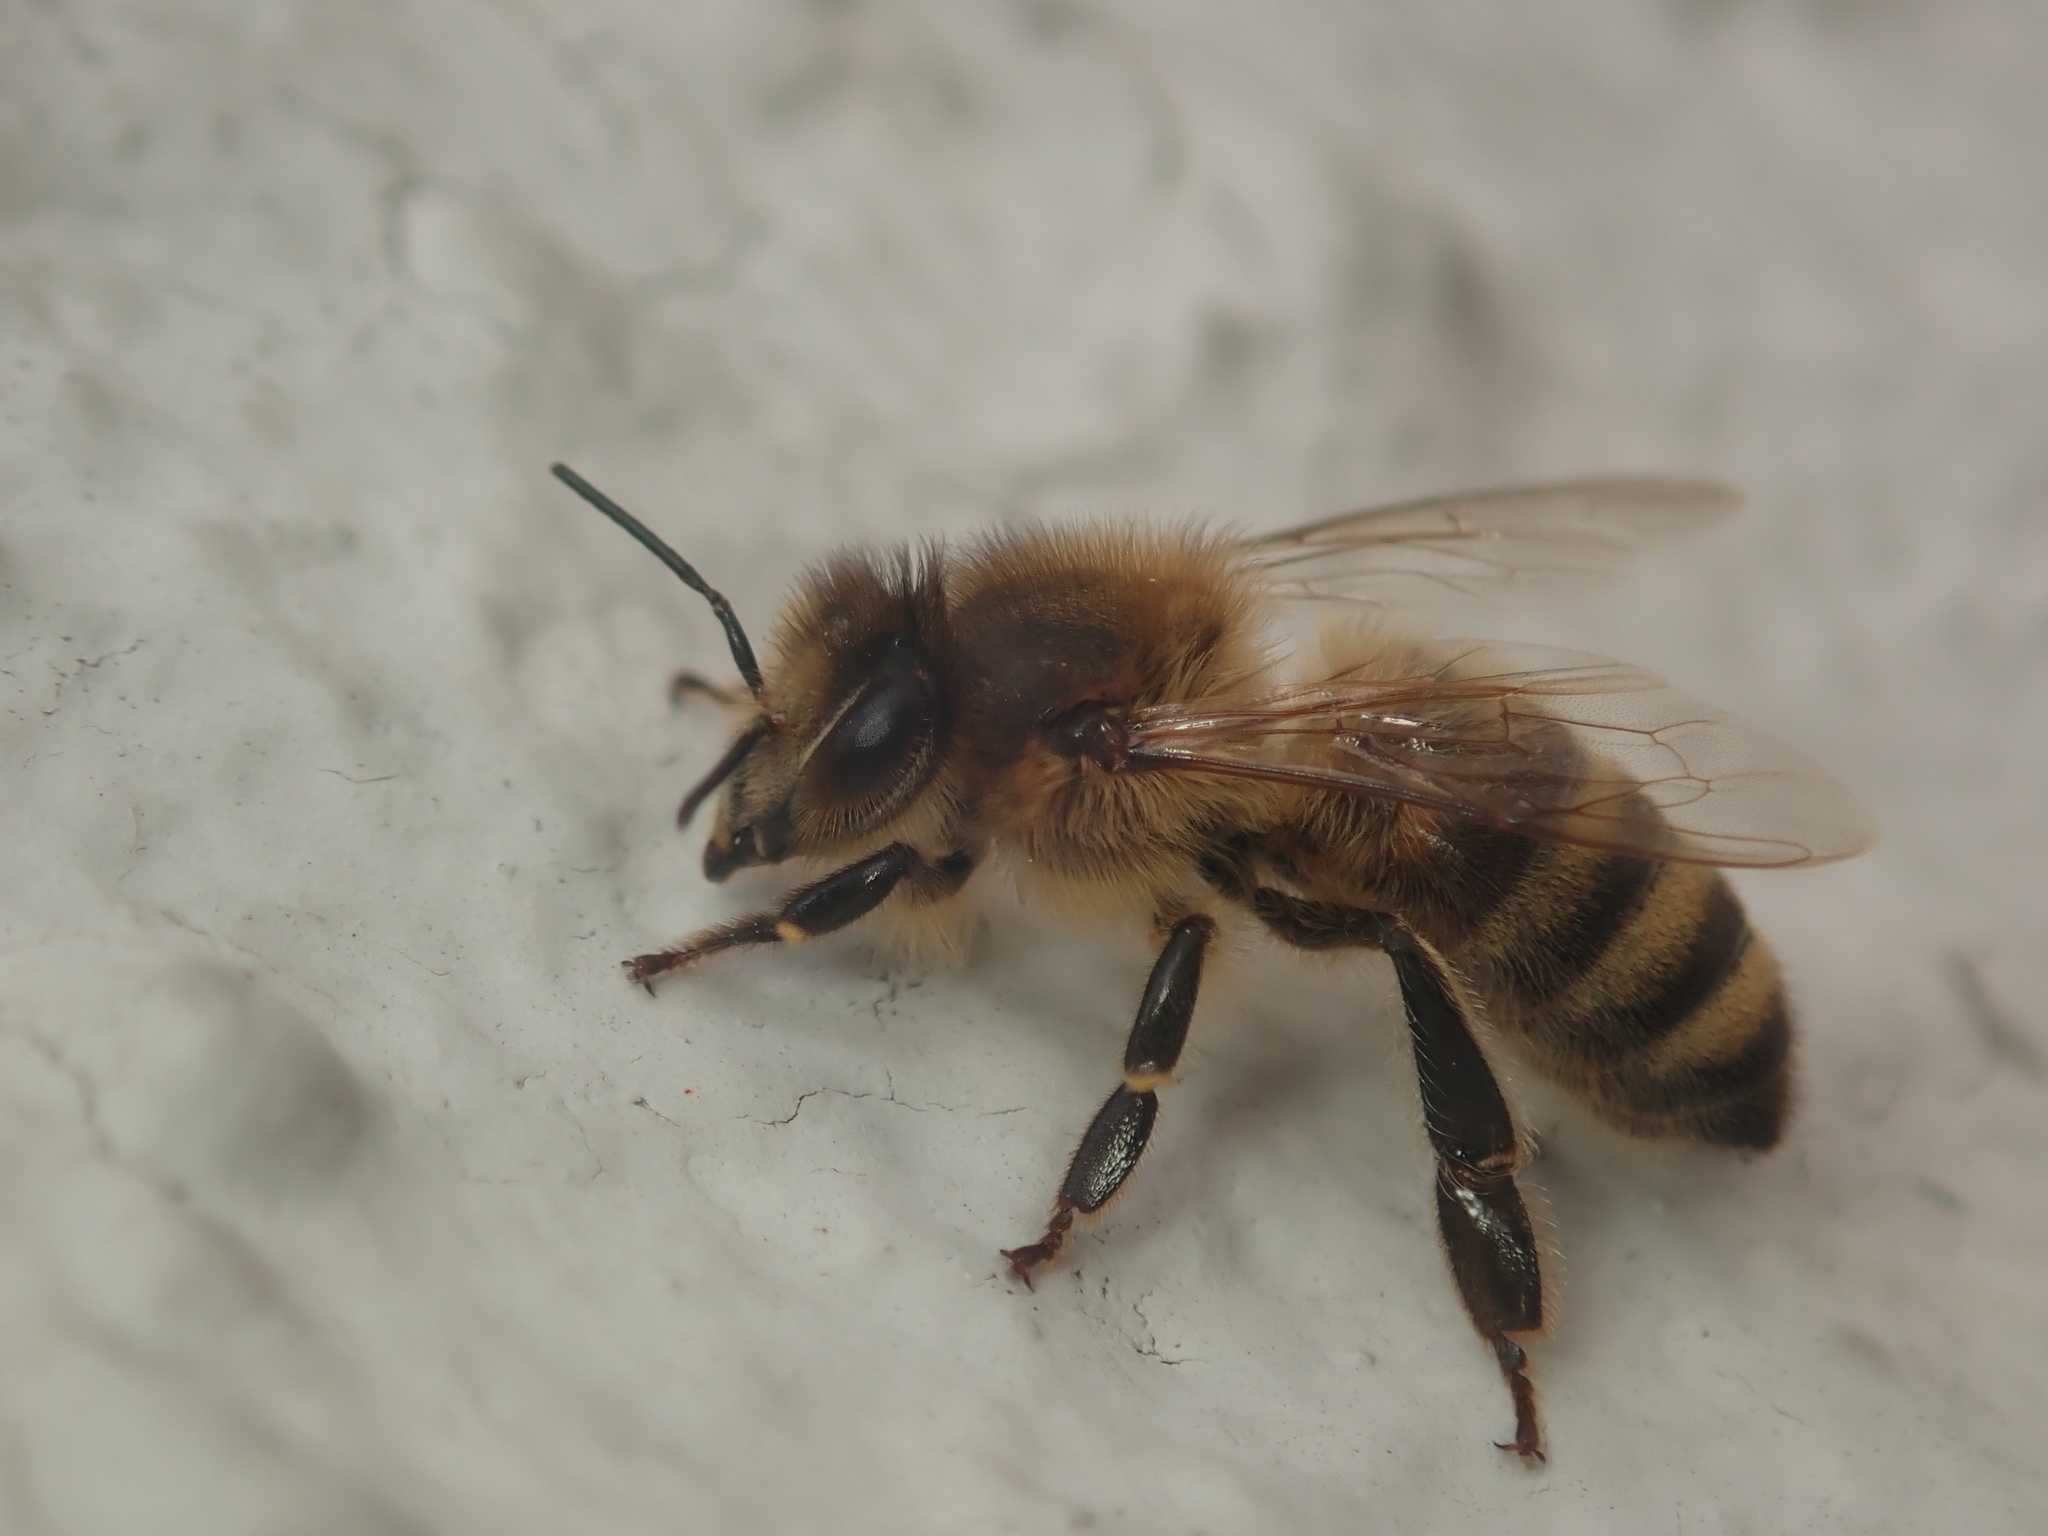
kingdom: Animalia
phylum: Arthropoda
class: Insecta
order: Hymenoptera
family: Apidae
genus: Apis
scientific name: Apis mellifera
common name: Honey bee
